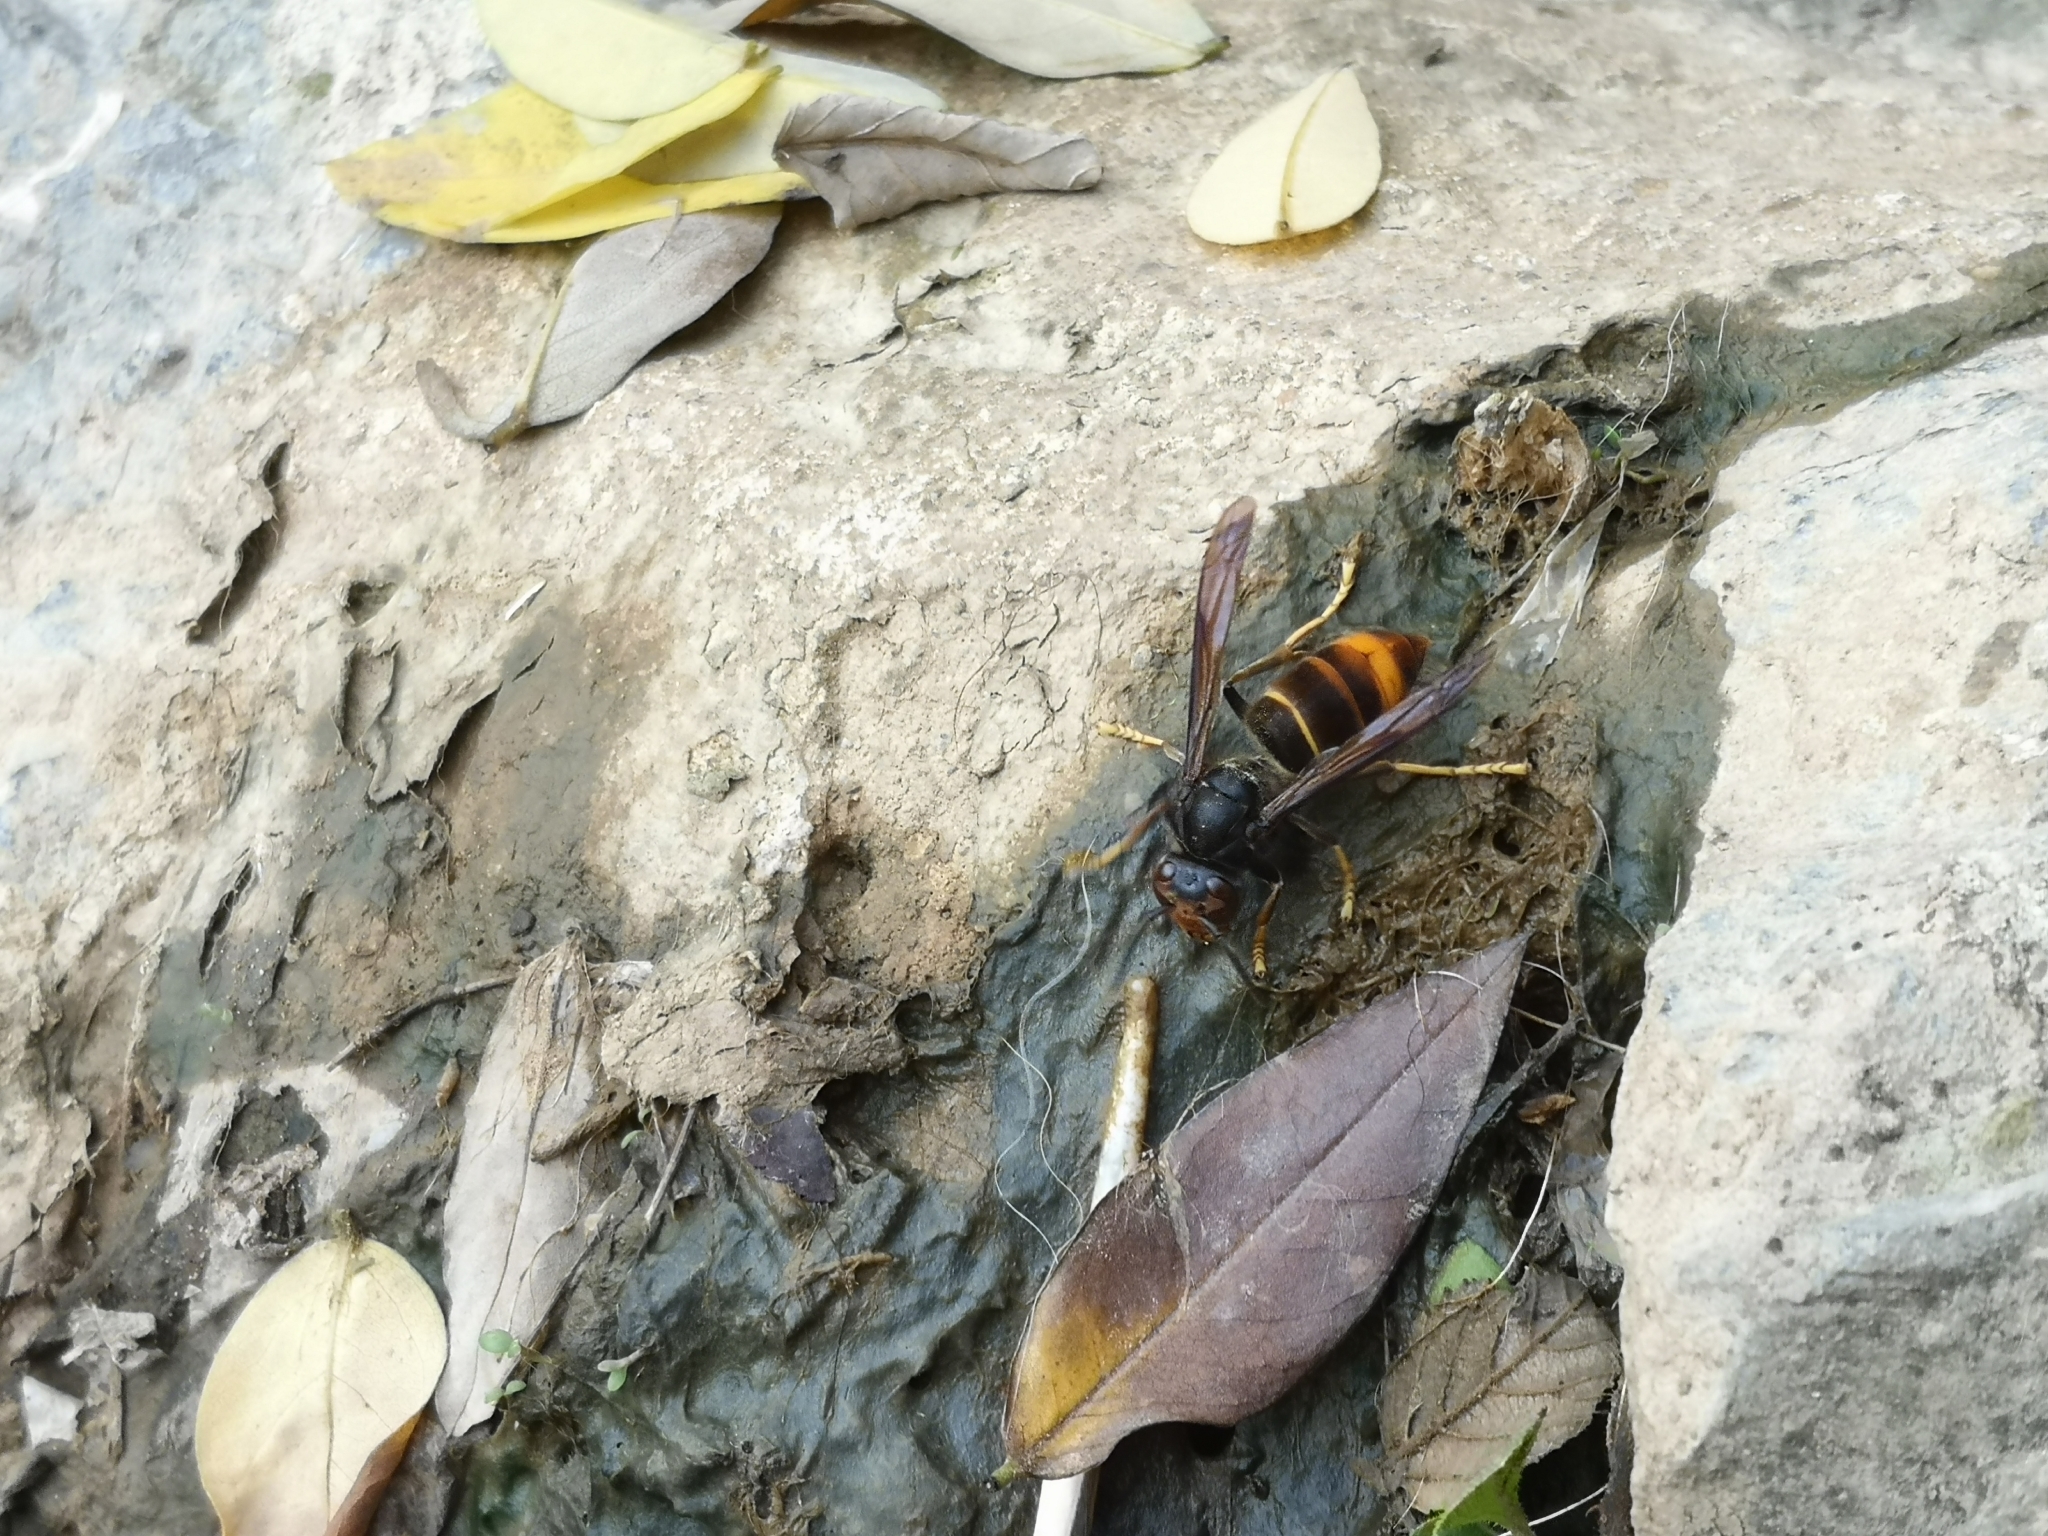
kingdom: Animalia
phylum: Arthropoda
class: Insecta
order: Hymenoptera
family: Vespidae
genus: Vespa
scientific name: Vespa velutina
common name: Asian hornet
